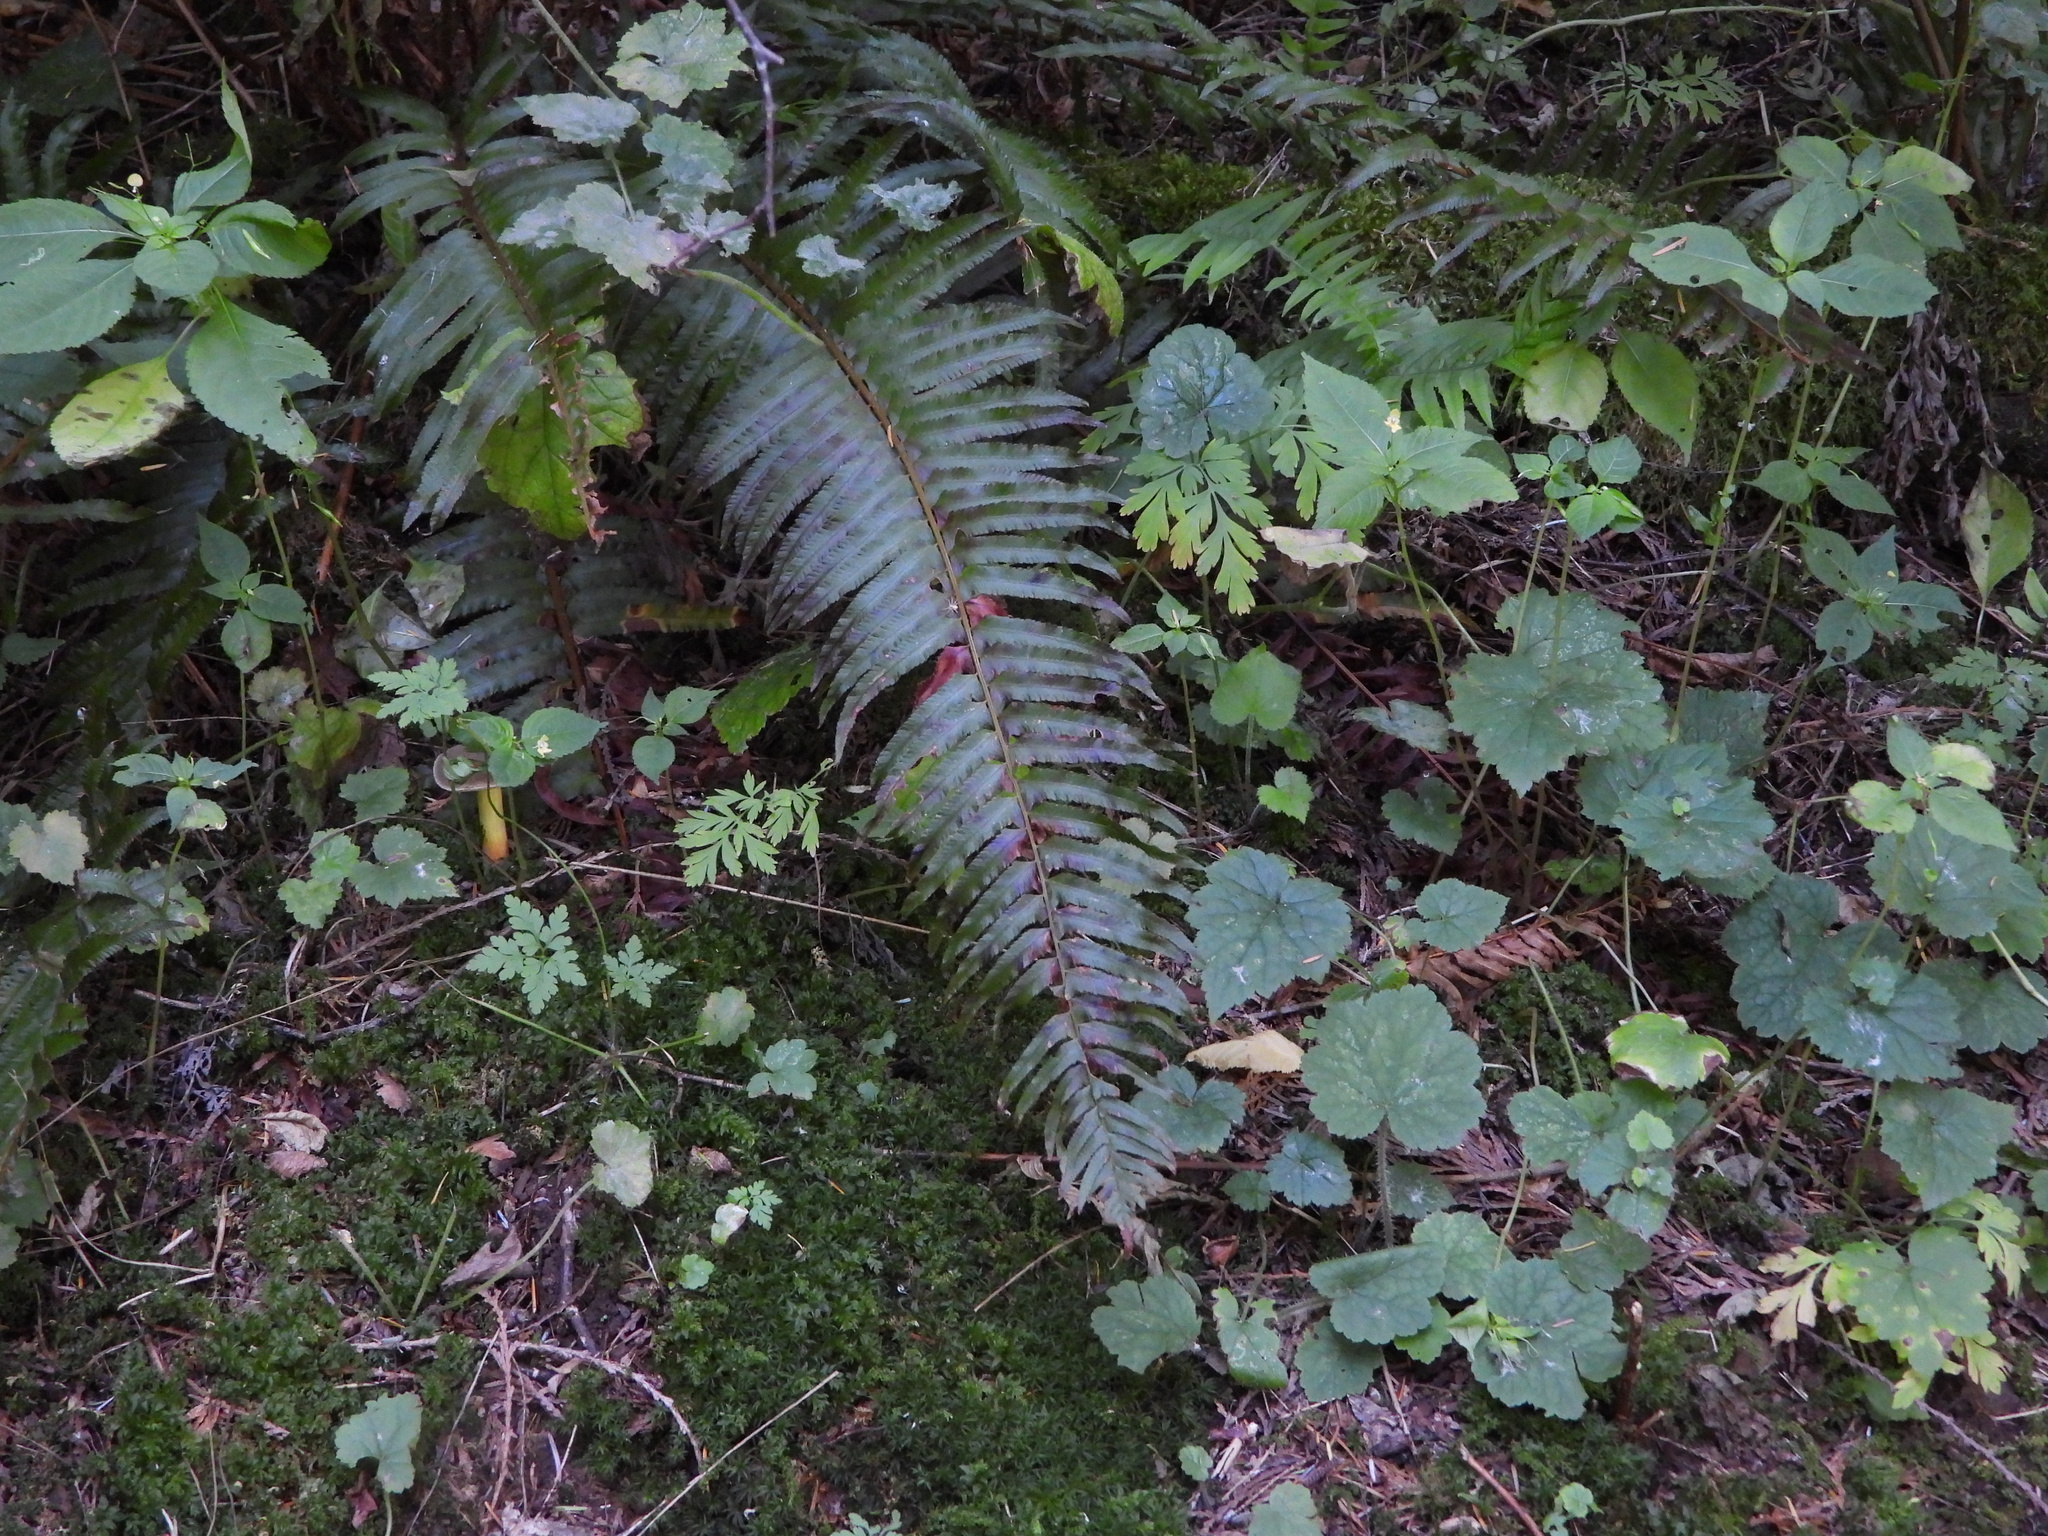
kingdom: Plantae
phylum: Tracheophyta
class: Polypodiopsida
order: Polypodiales
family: Dryopteridaceae
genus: Polystichum
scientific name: Polystichum munitum
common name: Western sword-fern
